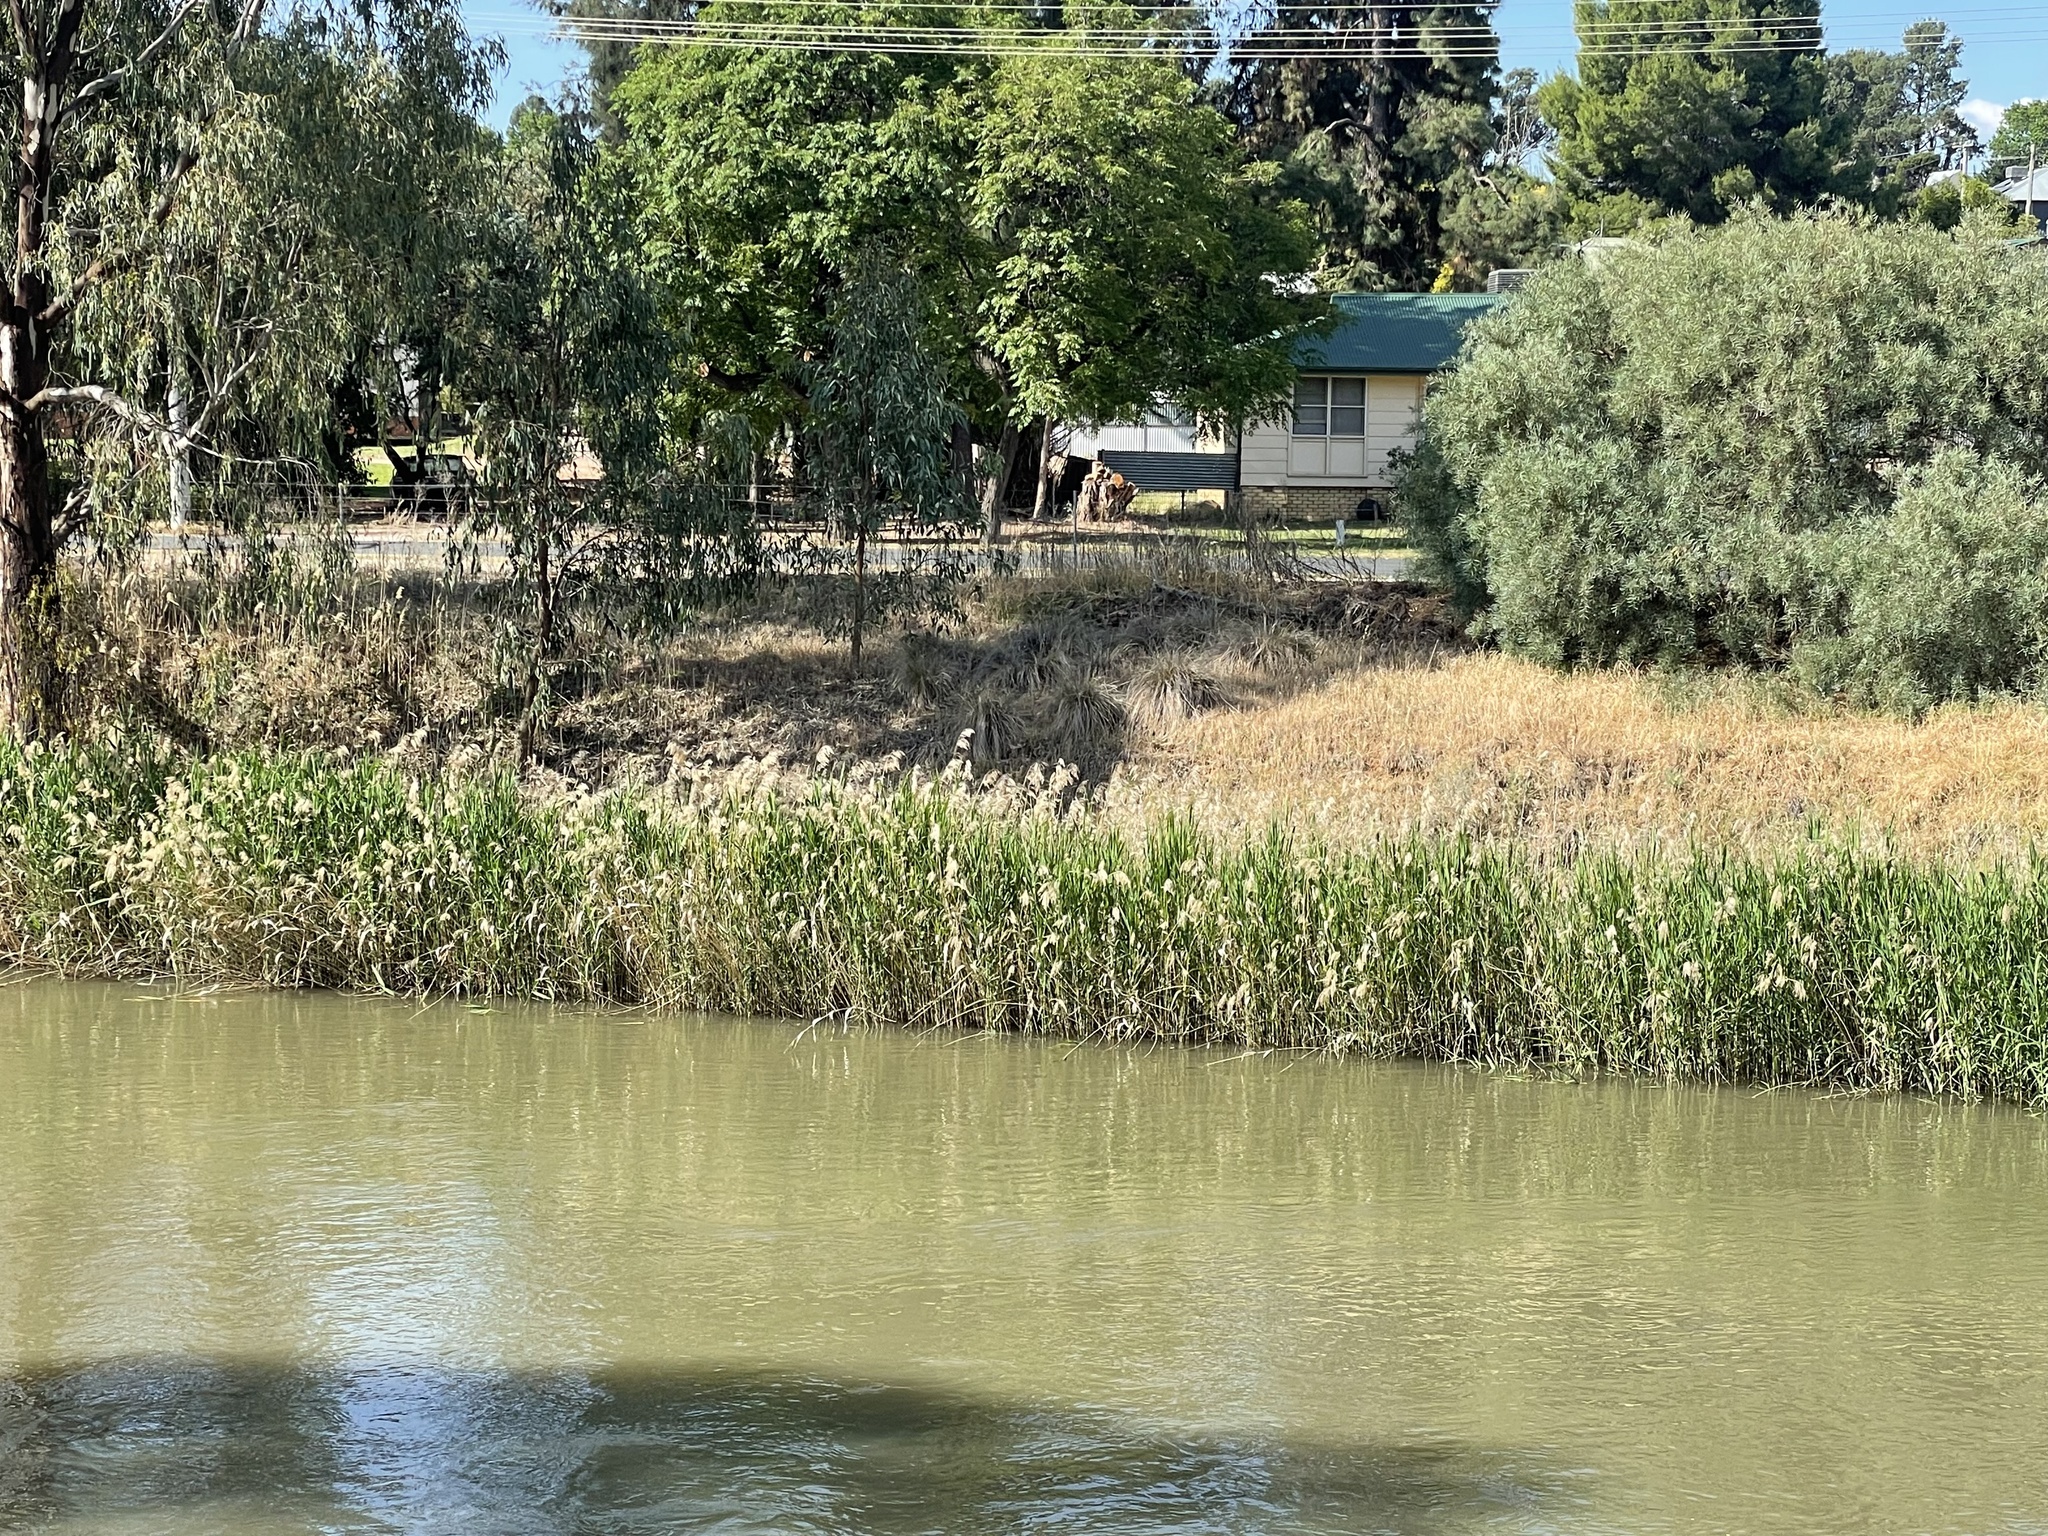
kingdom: Plantae
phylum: Tracheophyta
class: Liliopsida
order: Poales
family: Poaceae
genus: Phragmites
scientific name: Phragmites australis
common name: Common reed
